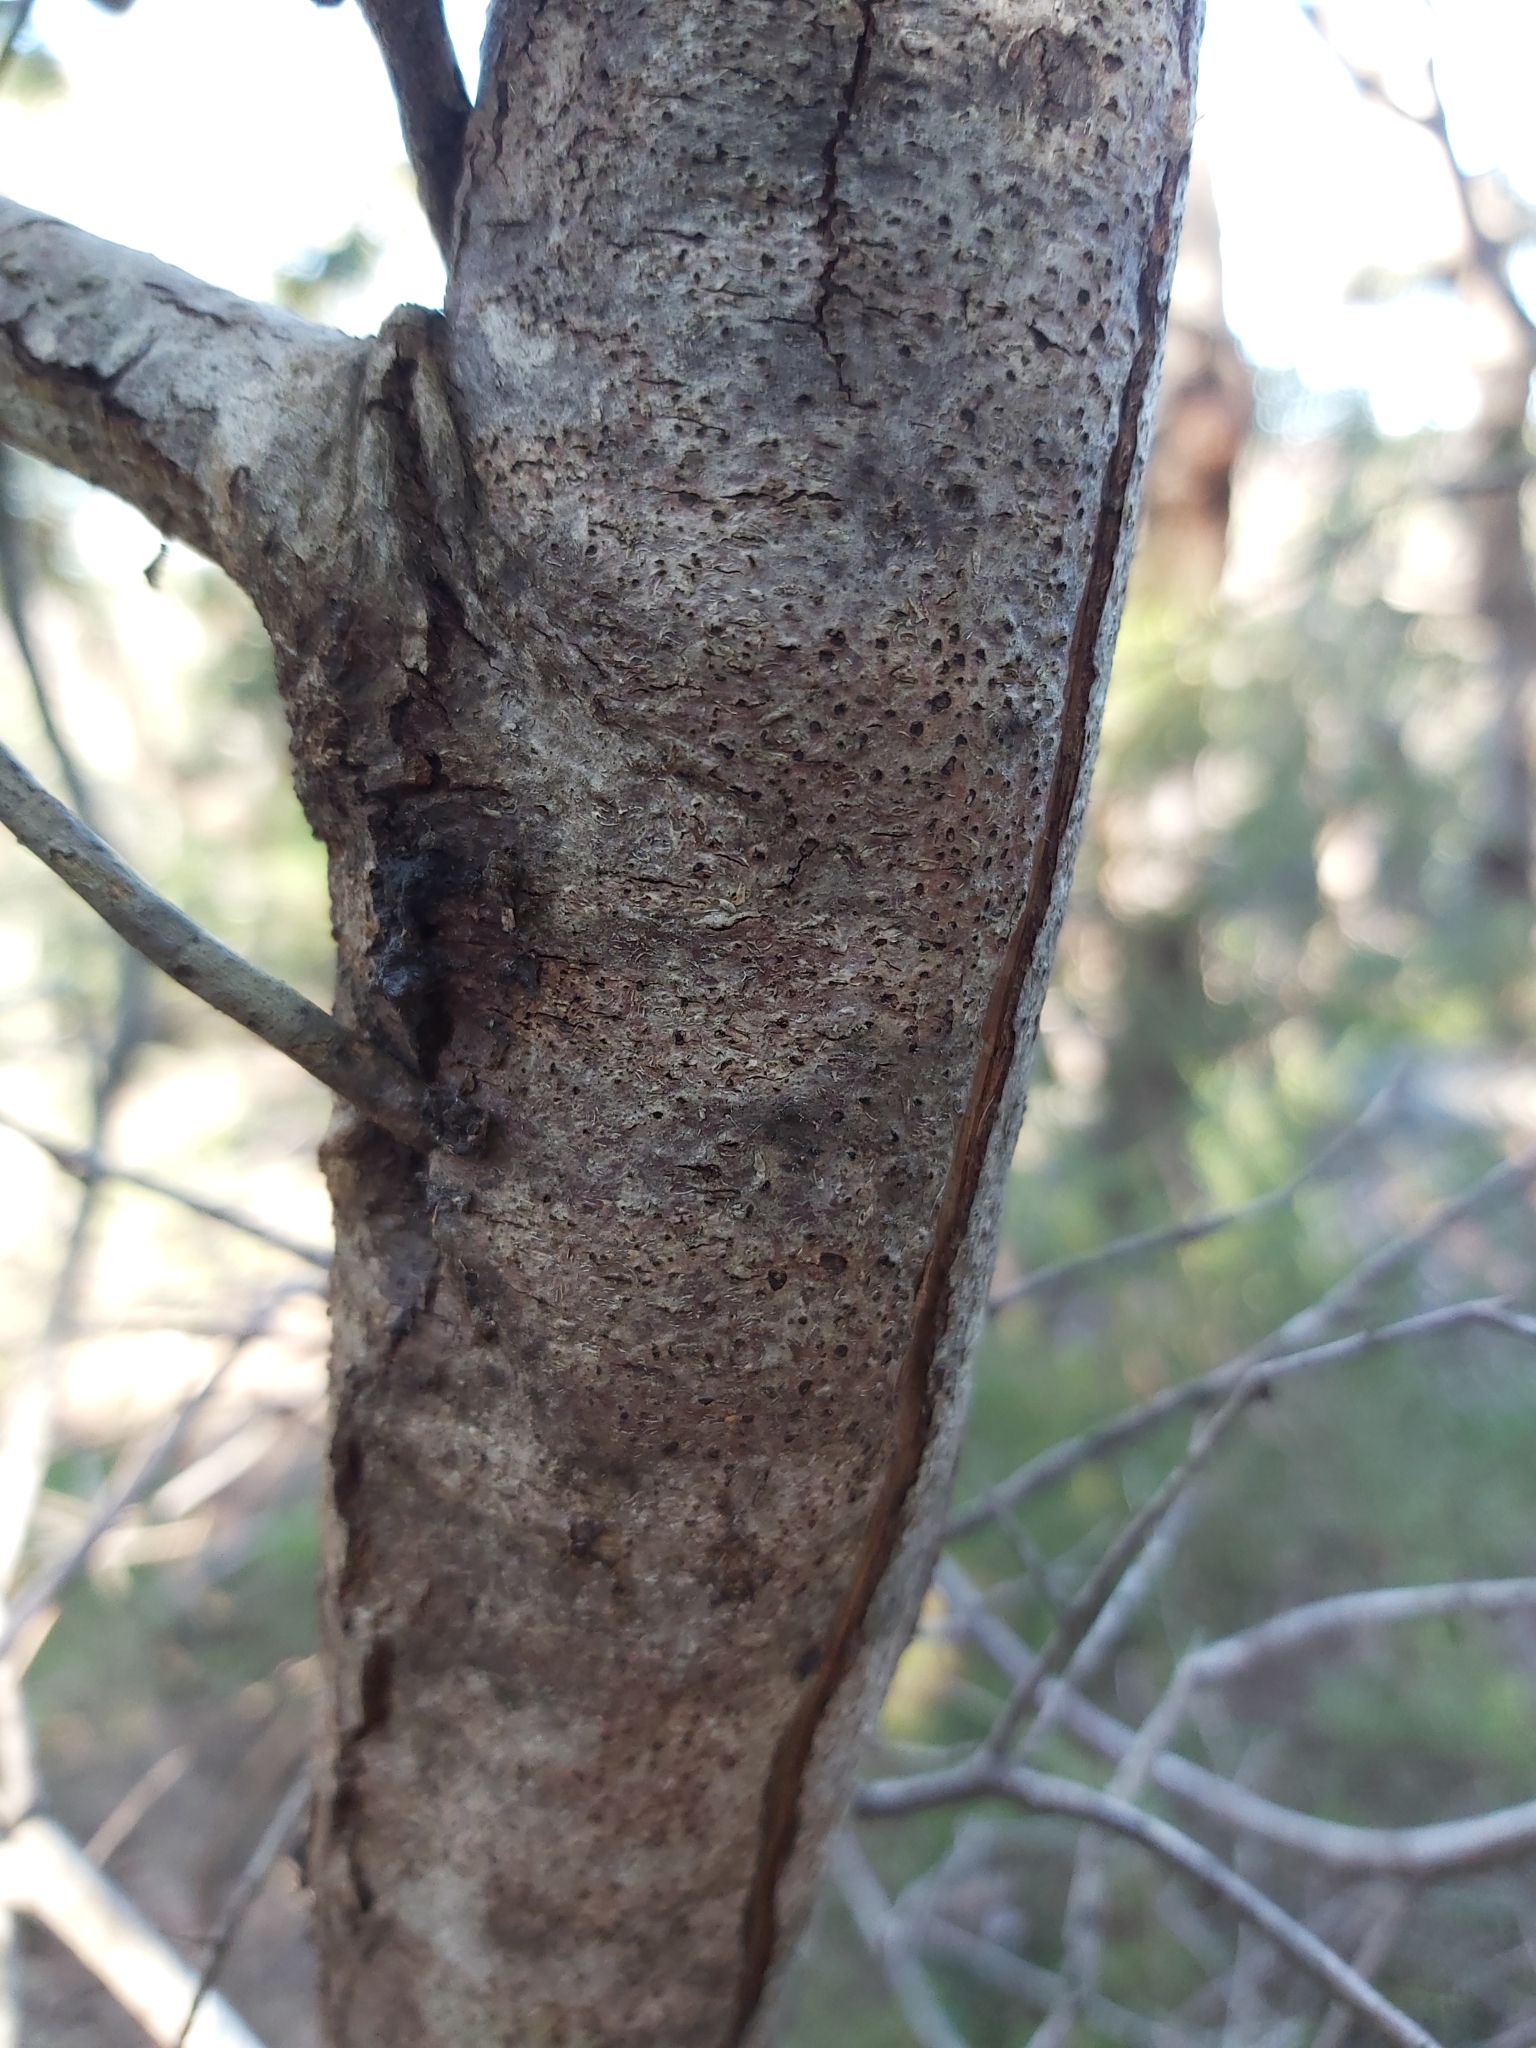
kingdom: Plantae
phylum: Tracheophyta
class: Magnoliopsida
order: Proteales
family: Proteaceae
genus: Hakea
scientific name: Hakea sericea
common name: Needle bush
